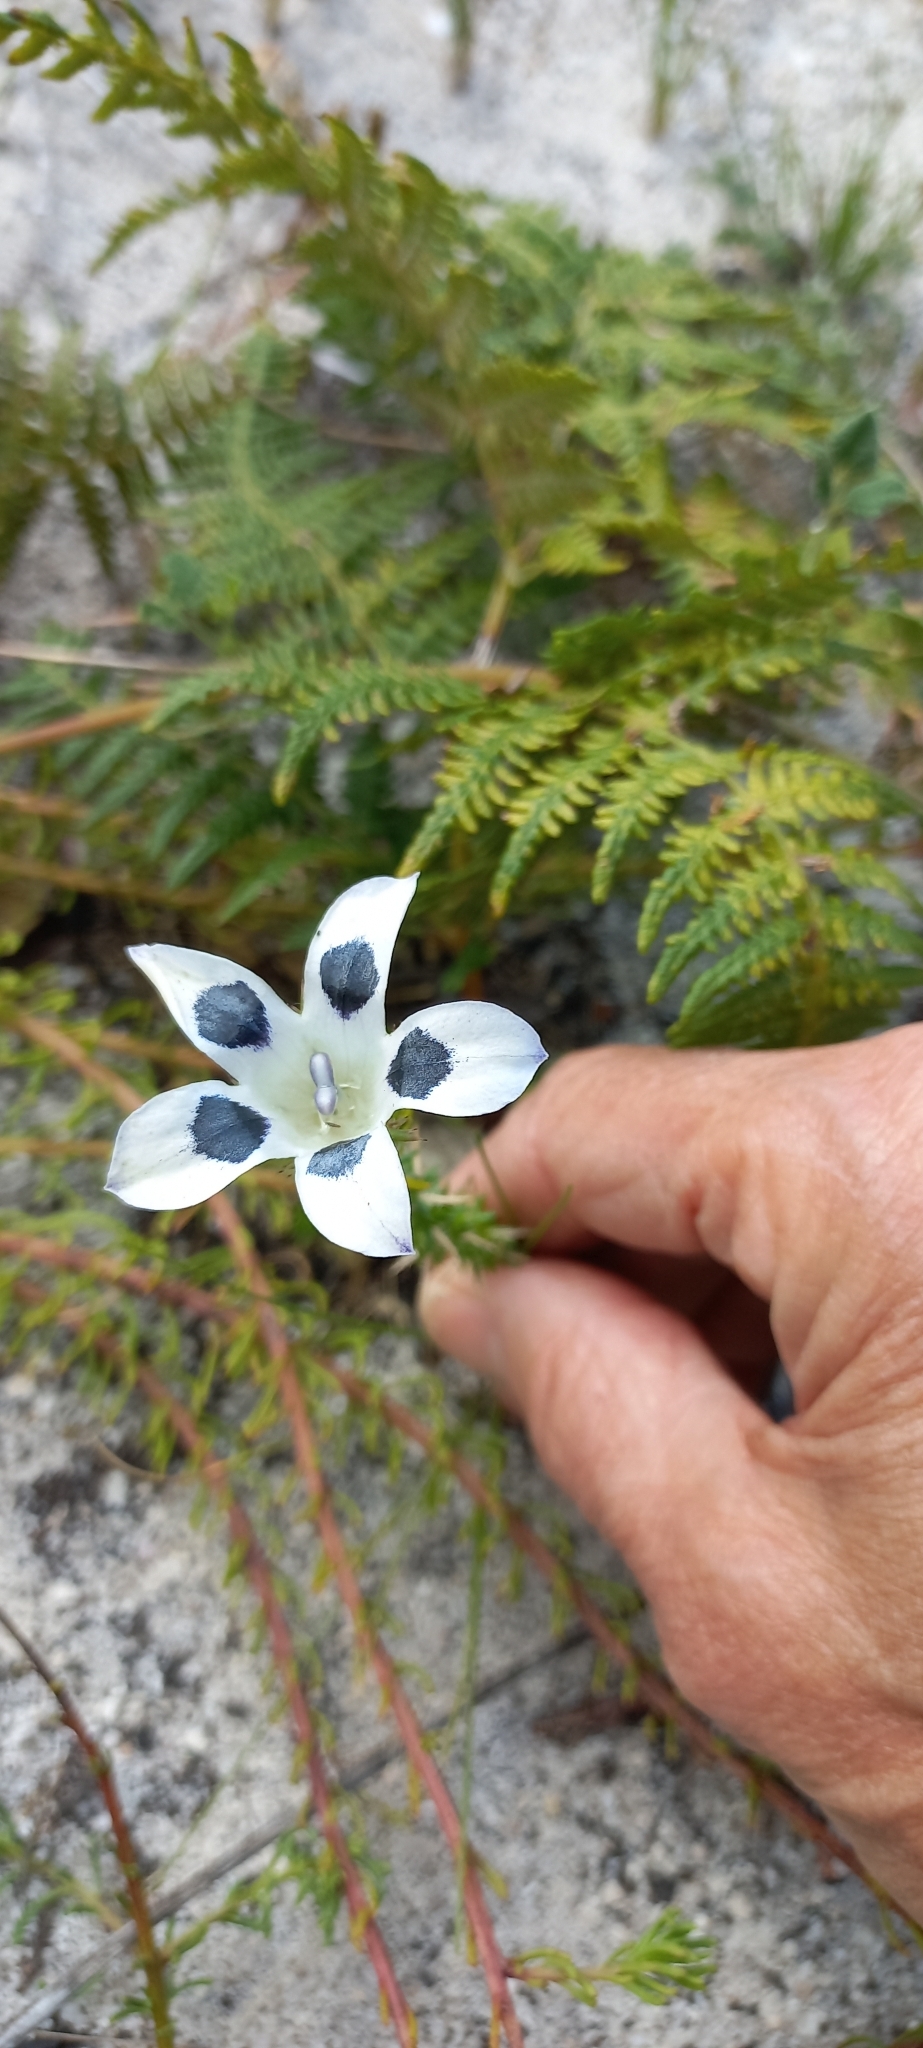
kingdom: Plantae
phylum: Tracheophyta
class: Magnoliopsida
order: Asterales
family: Campanulaceae
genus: Roella
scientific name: Roella incurva
